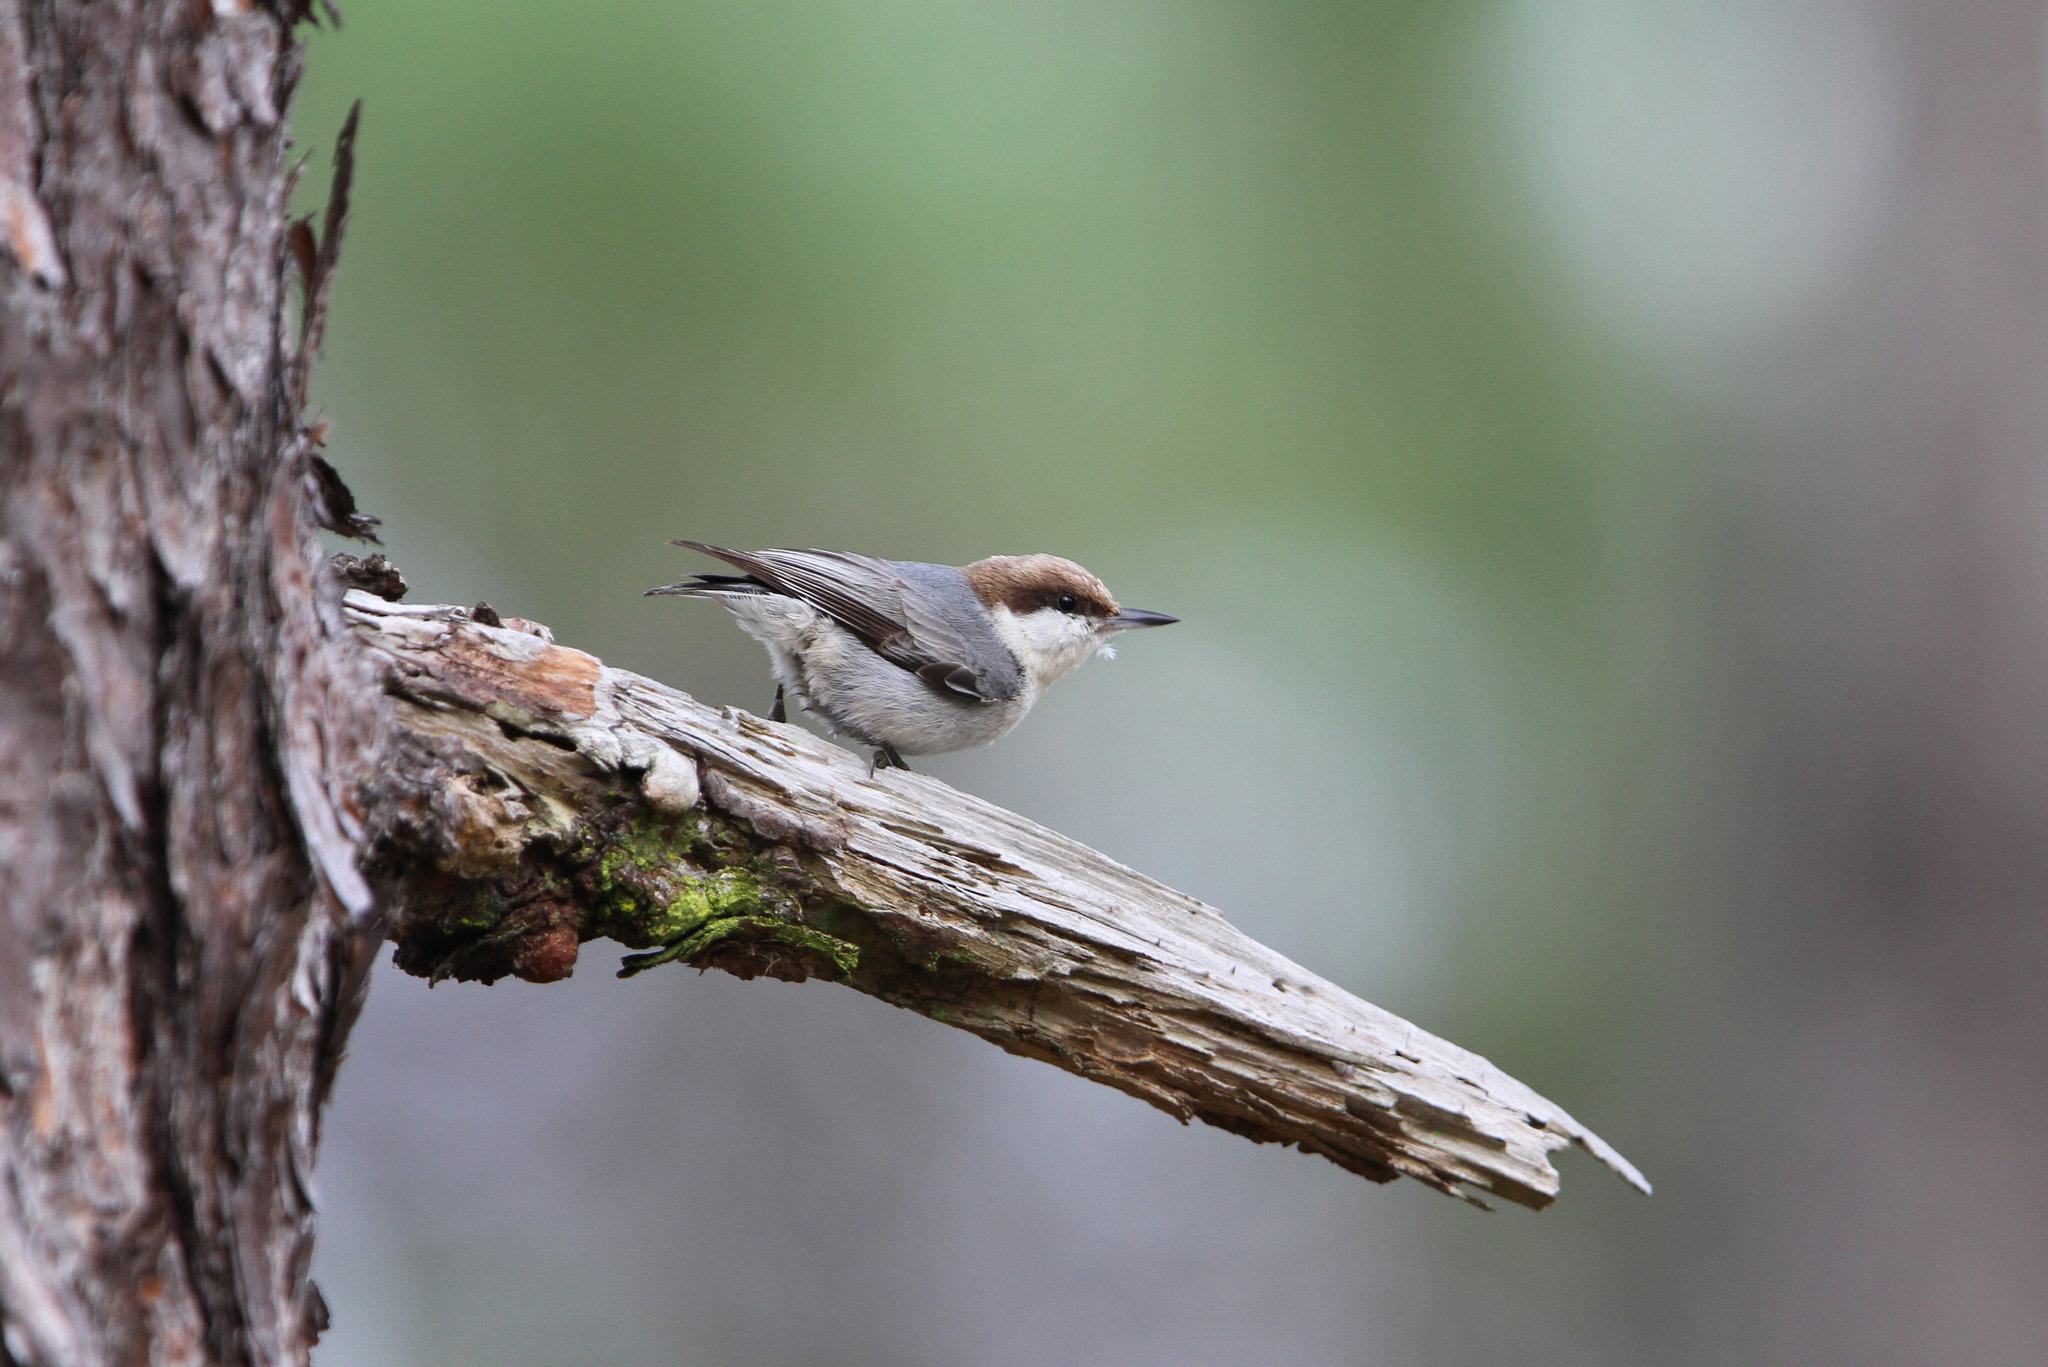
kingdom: Animalia
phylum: Chordata
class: Aves
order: Passeriformes
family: Sittidae
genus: Sitta
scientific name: Sitta pusilla
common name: Brown-headed nuthatch
